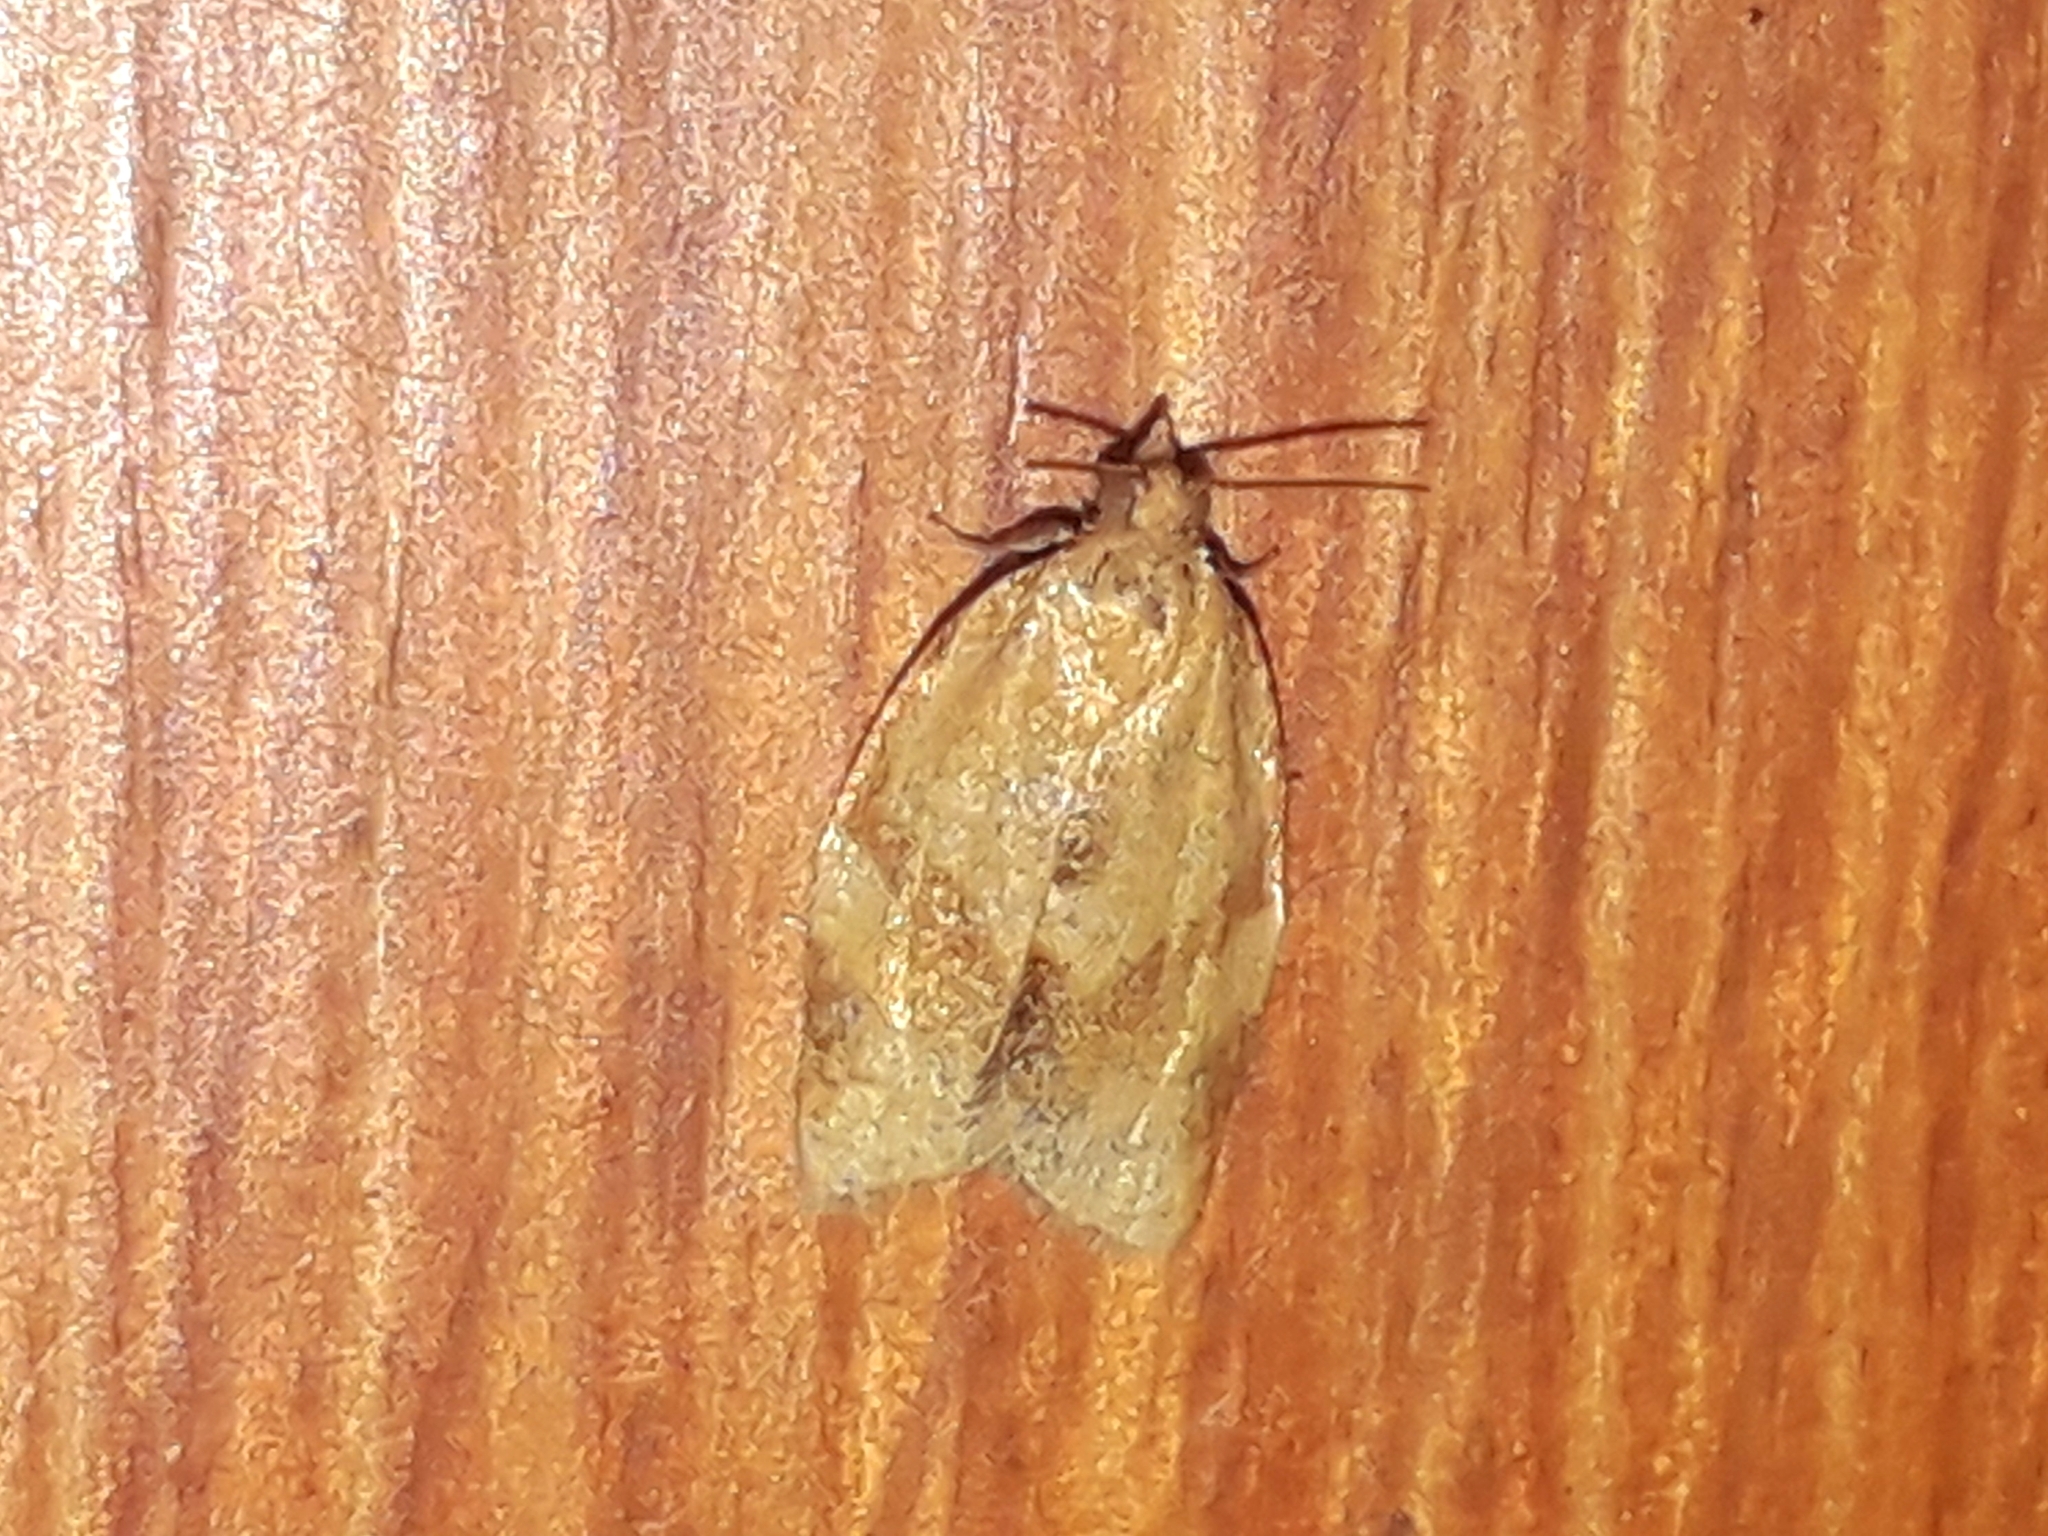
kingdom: Animalia
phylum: Arthropoda
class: Insecta
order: Lepidoptera
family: Tortricidae
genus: Clepsis
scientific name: Clepsis consimilana
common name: Privet tortrix
